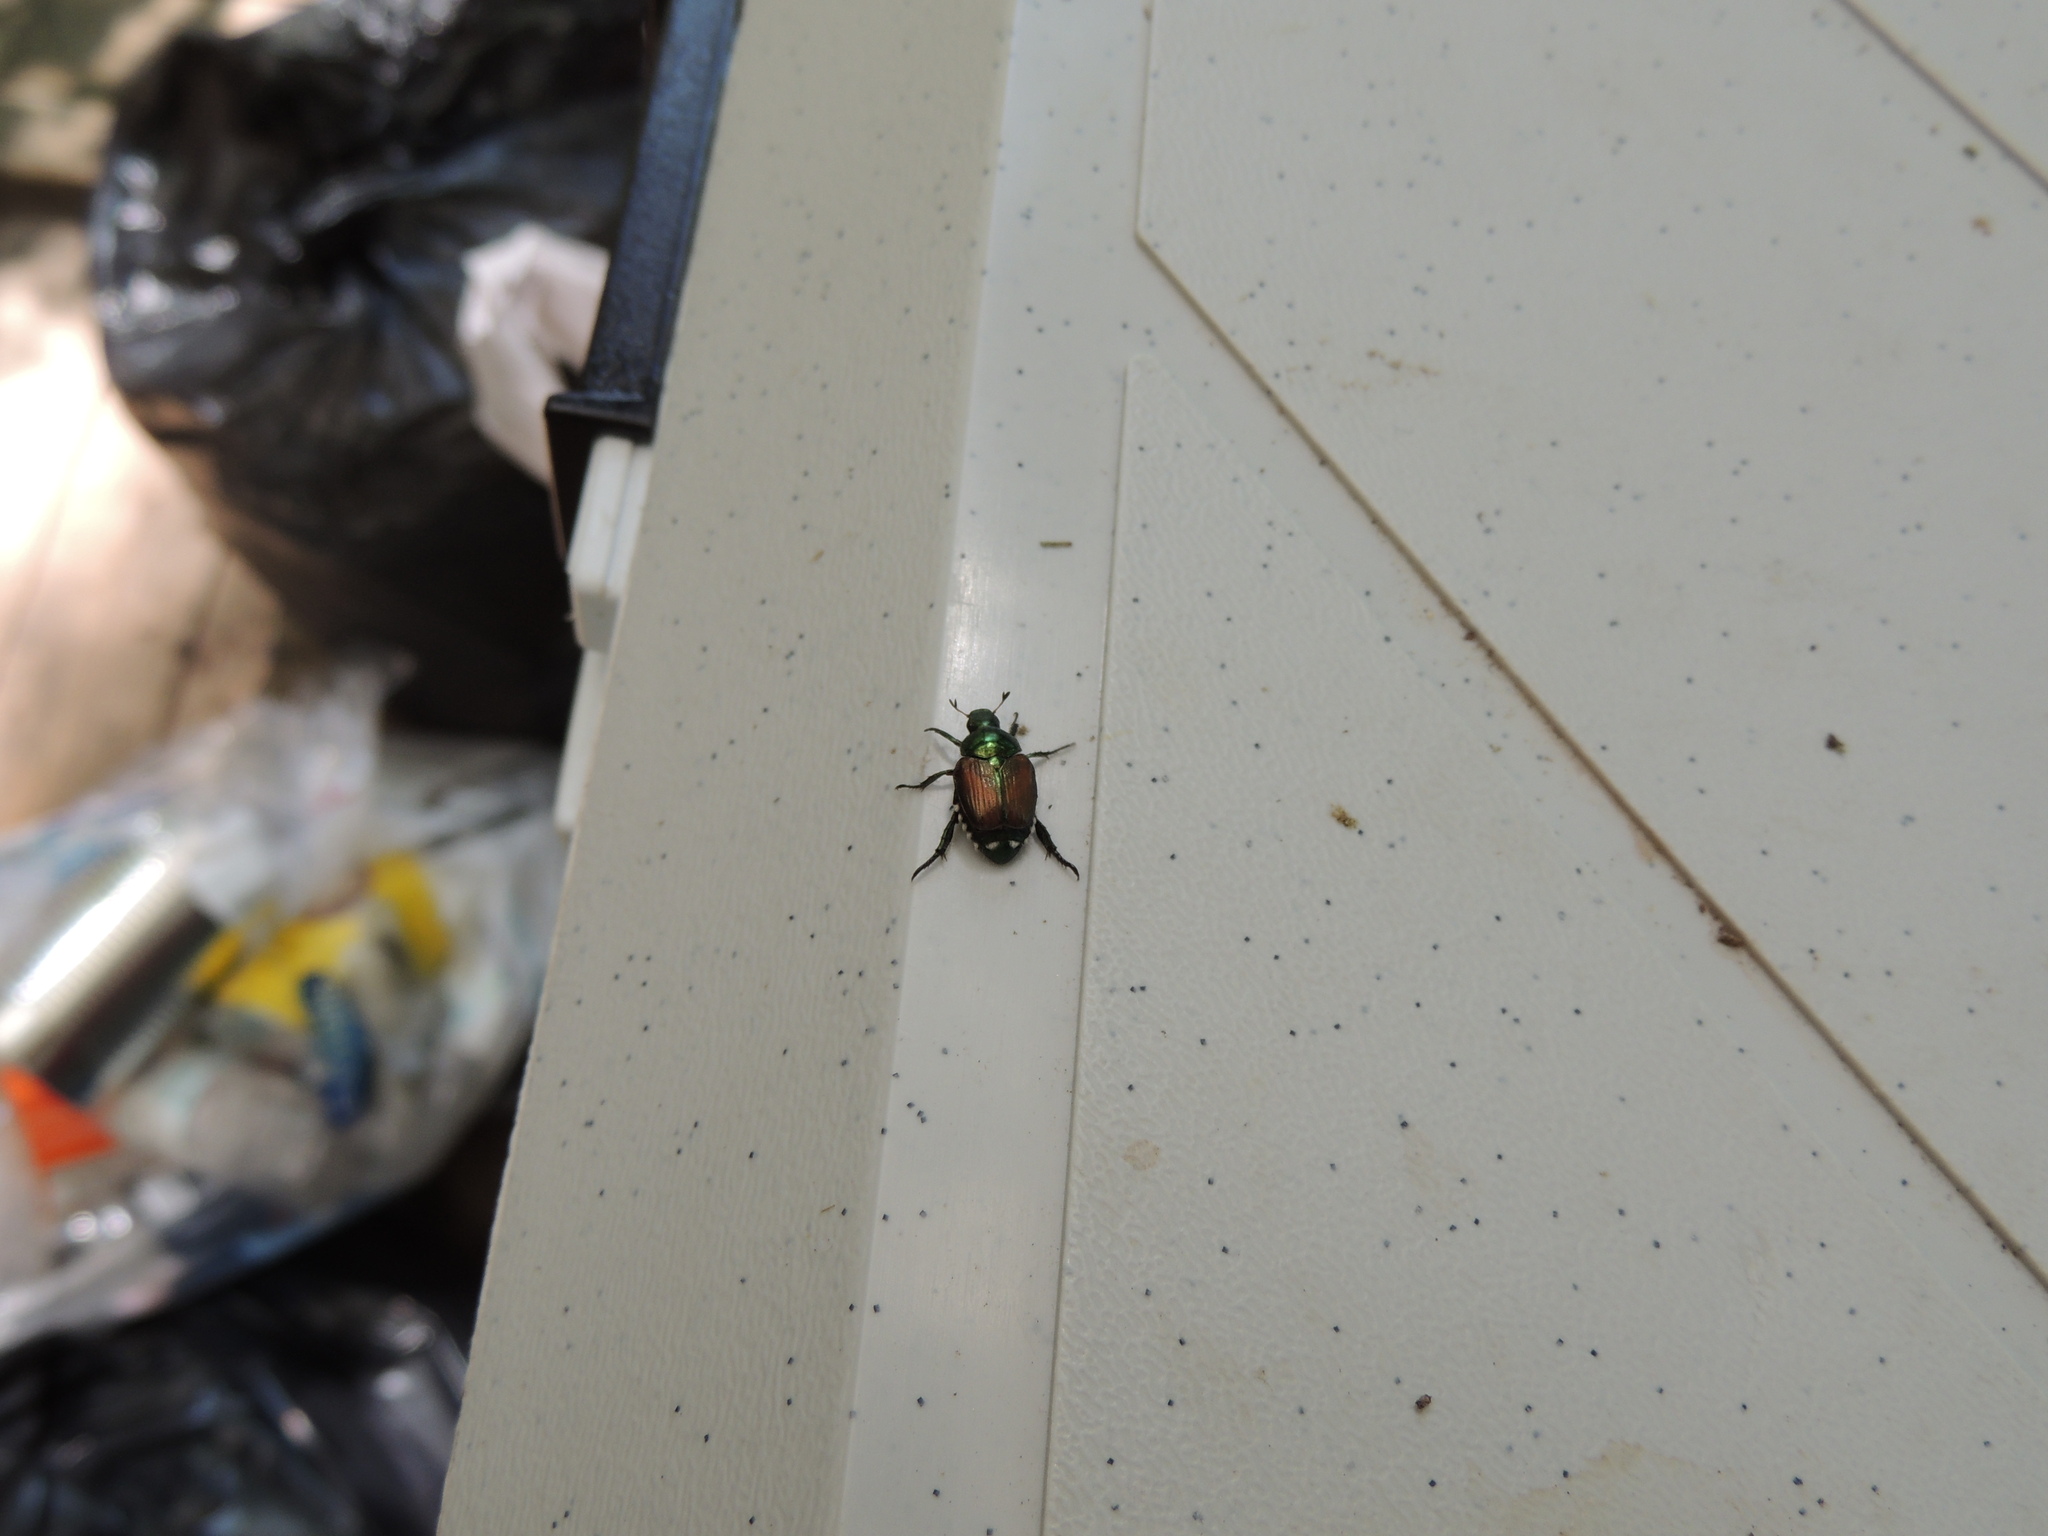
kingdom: Animalia
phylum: Arthropoda
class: Insecta
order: Coleoptera
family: Scarabaeidae
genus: Popillia
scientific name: Popillia japonica
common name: Japanese beetle
